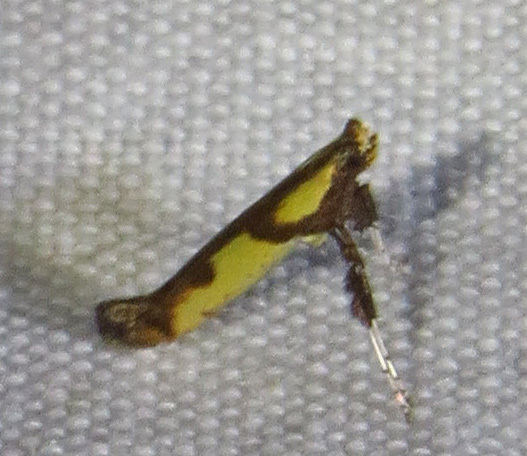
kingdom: Animalia
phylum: Arthropoda
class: Insecta
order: Lepidoptera
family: Gracillariidae
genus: Caloptilia
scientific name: Caloptilia blandella
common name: Walnut caloptilia moth
